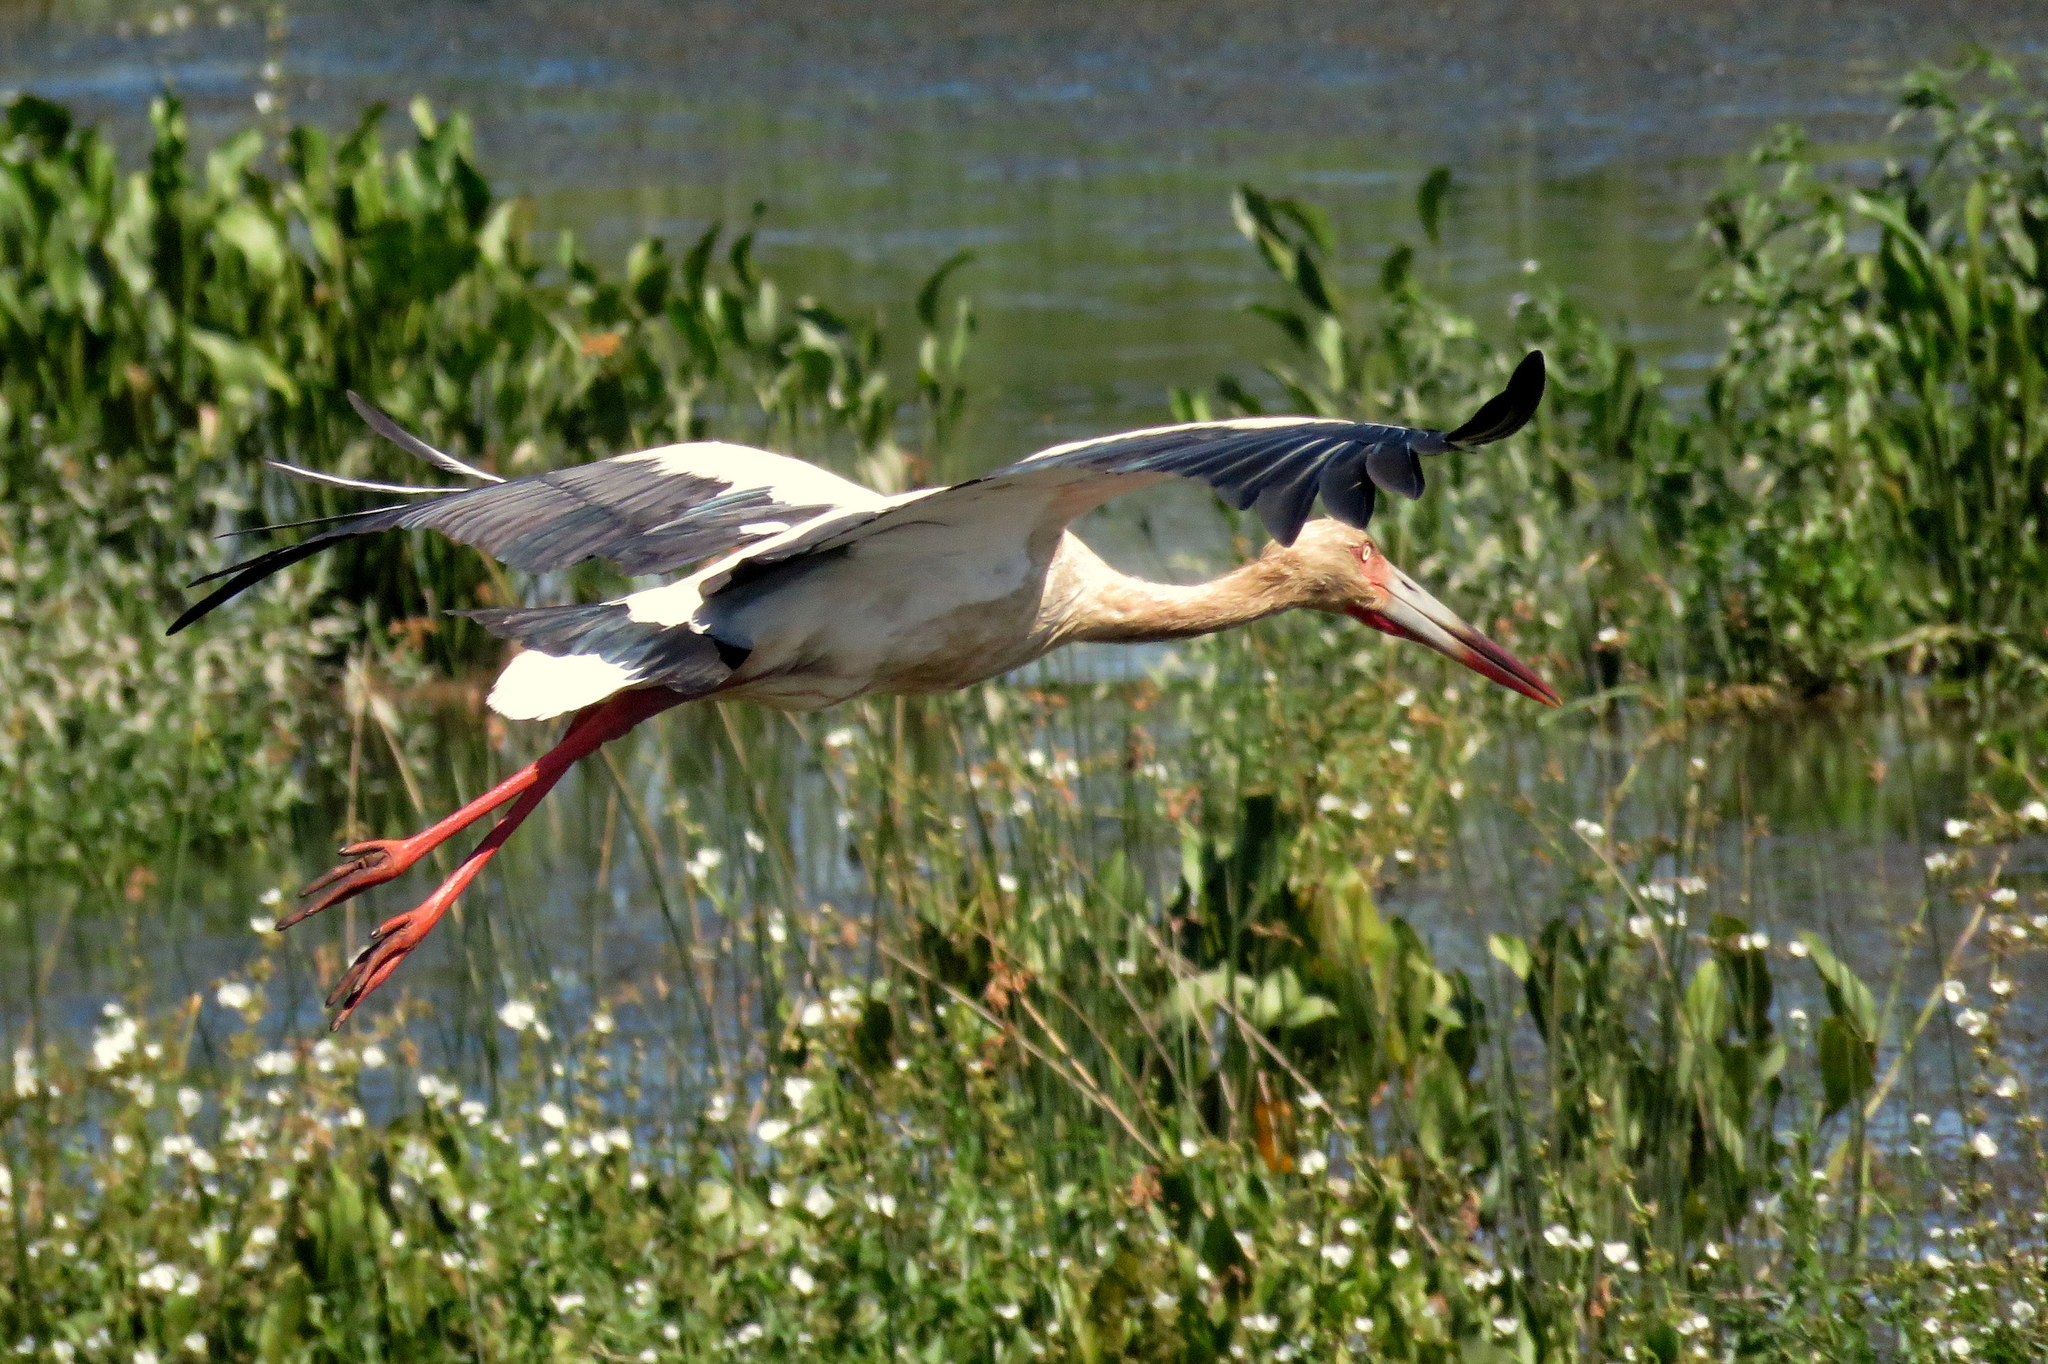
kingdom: Animalia
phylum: Chordata
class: Aves
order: Ciconiiformes
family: Ciconiidae
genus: Ciconia
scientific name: Ciconia maguari
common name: Maguari stork
